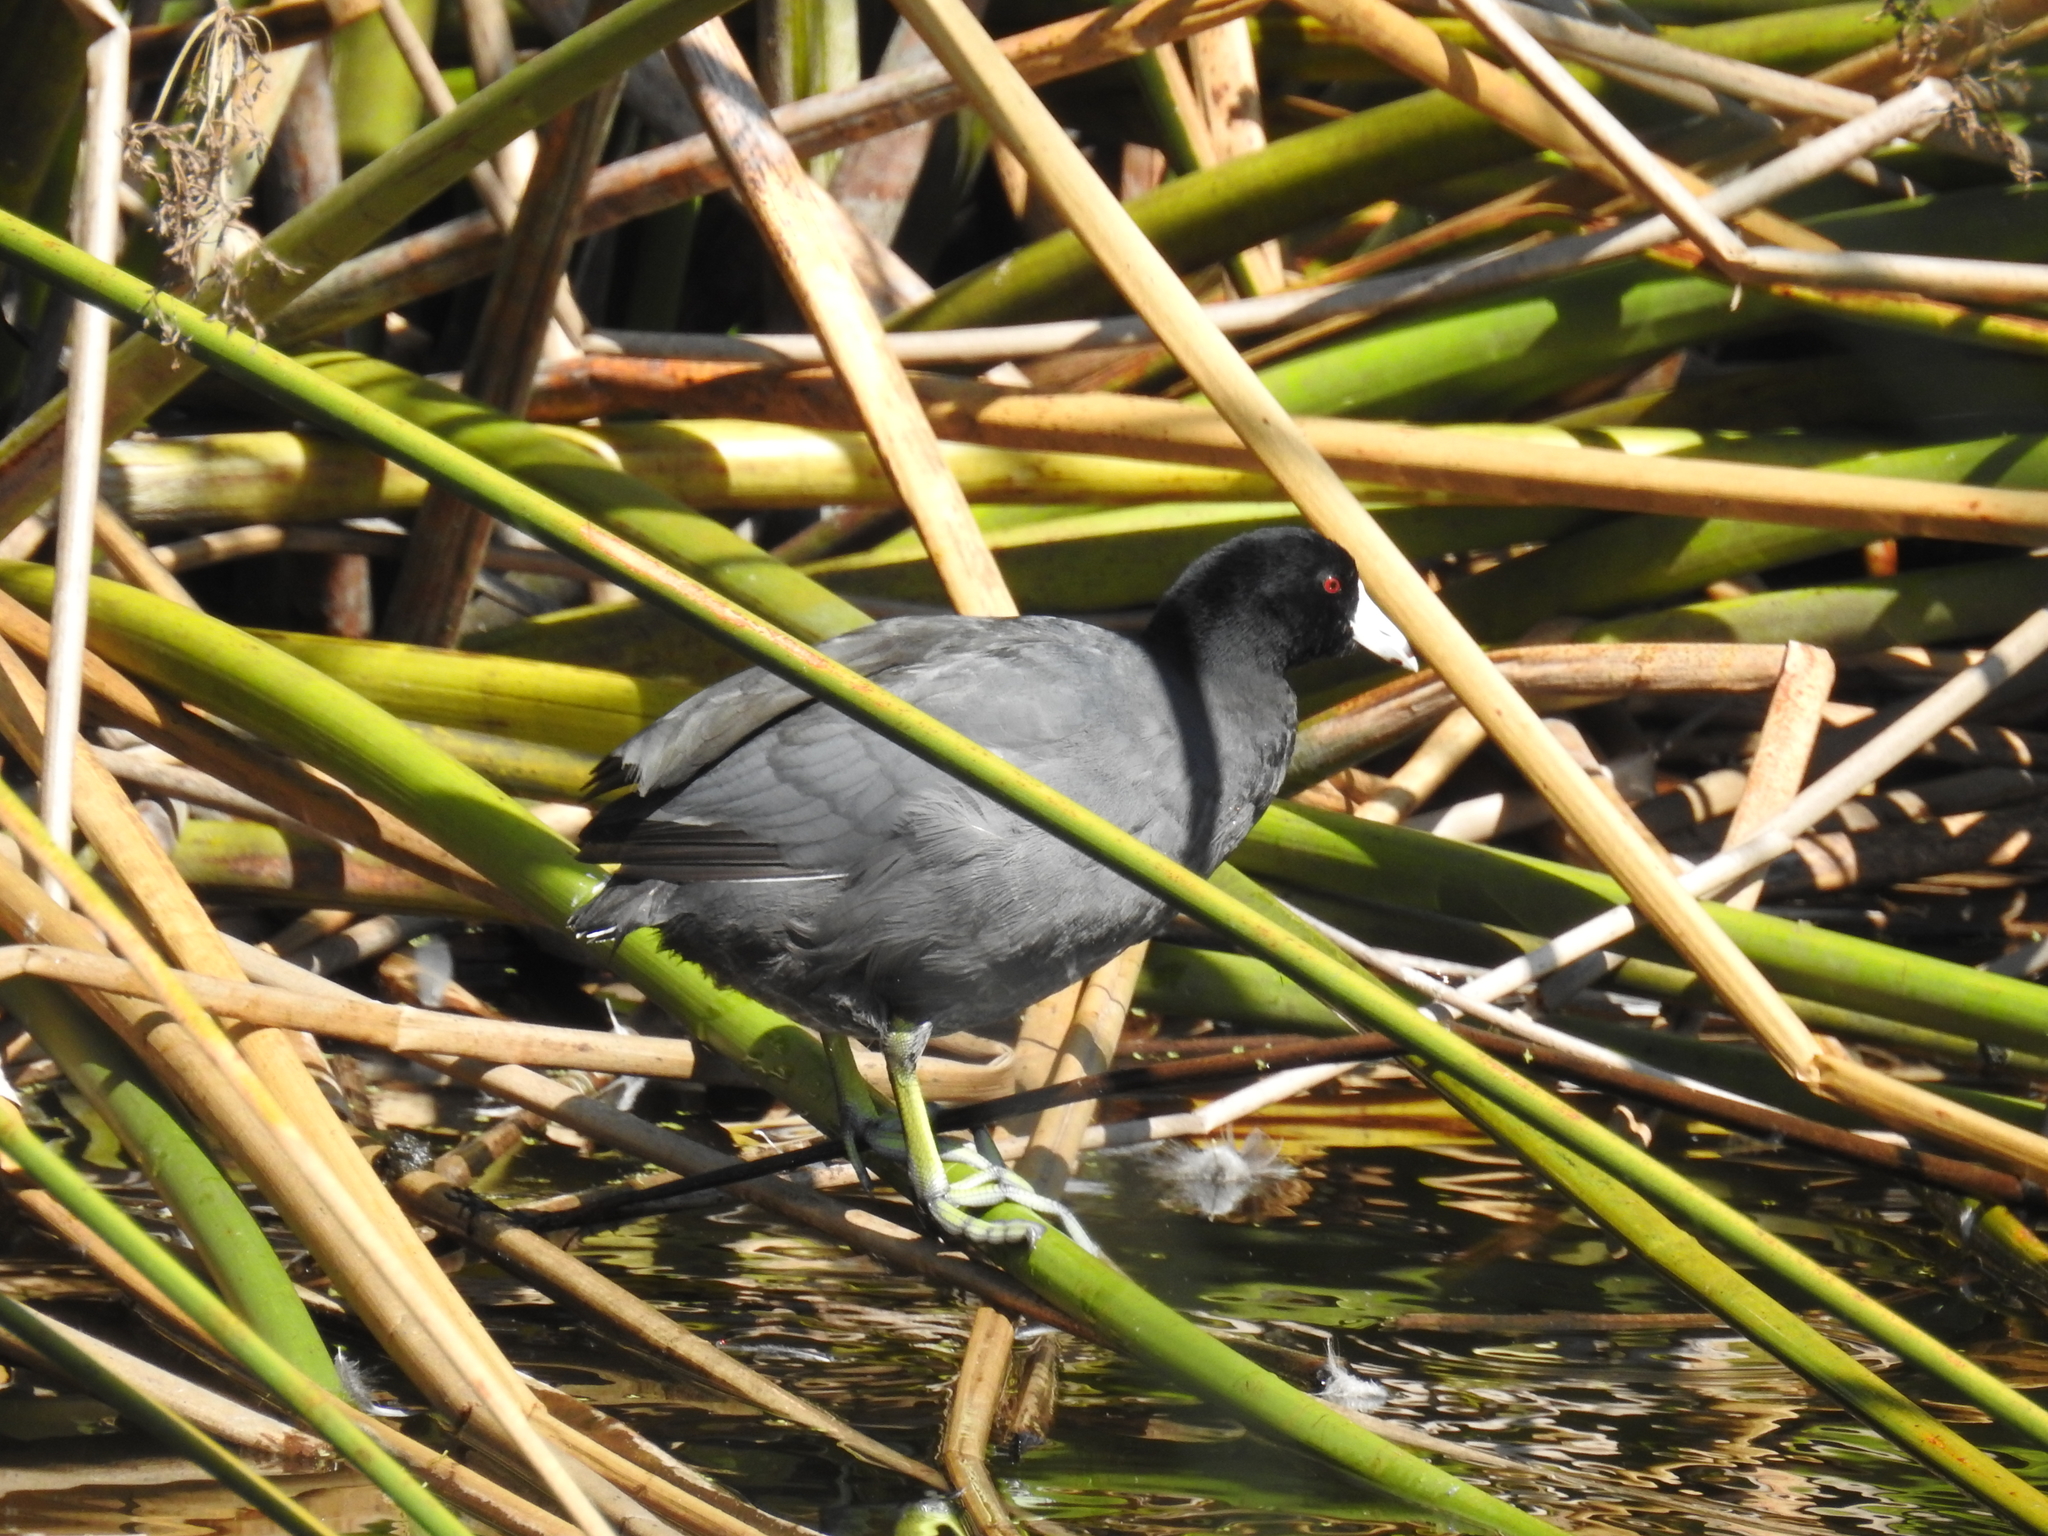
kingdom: Animalia
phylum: Chordata
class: Aves
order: Gruiformes
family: Rallidae
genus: Fulica
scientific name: Fulica americana
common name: American coot
